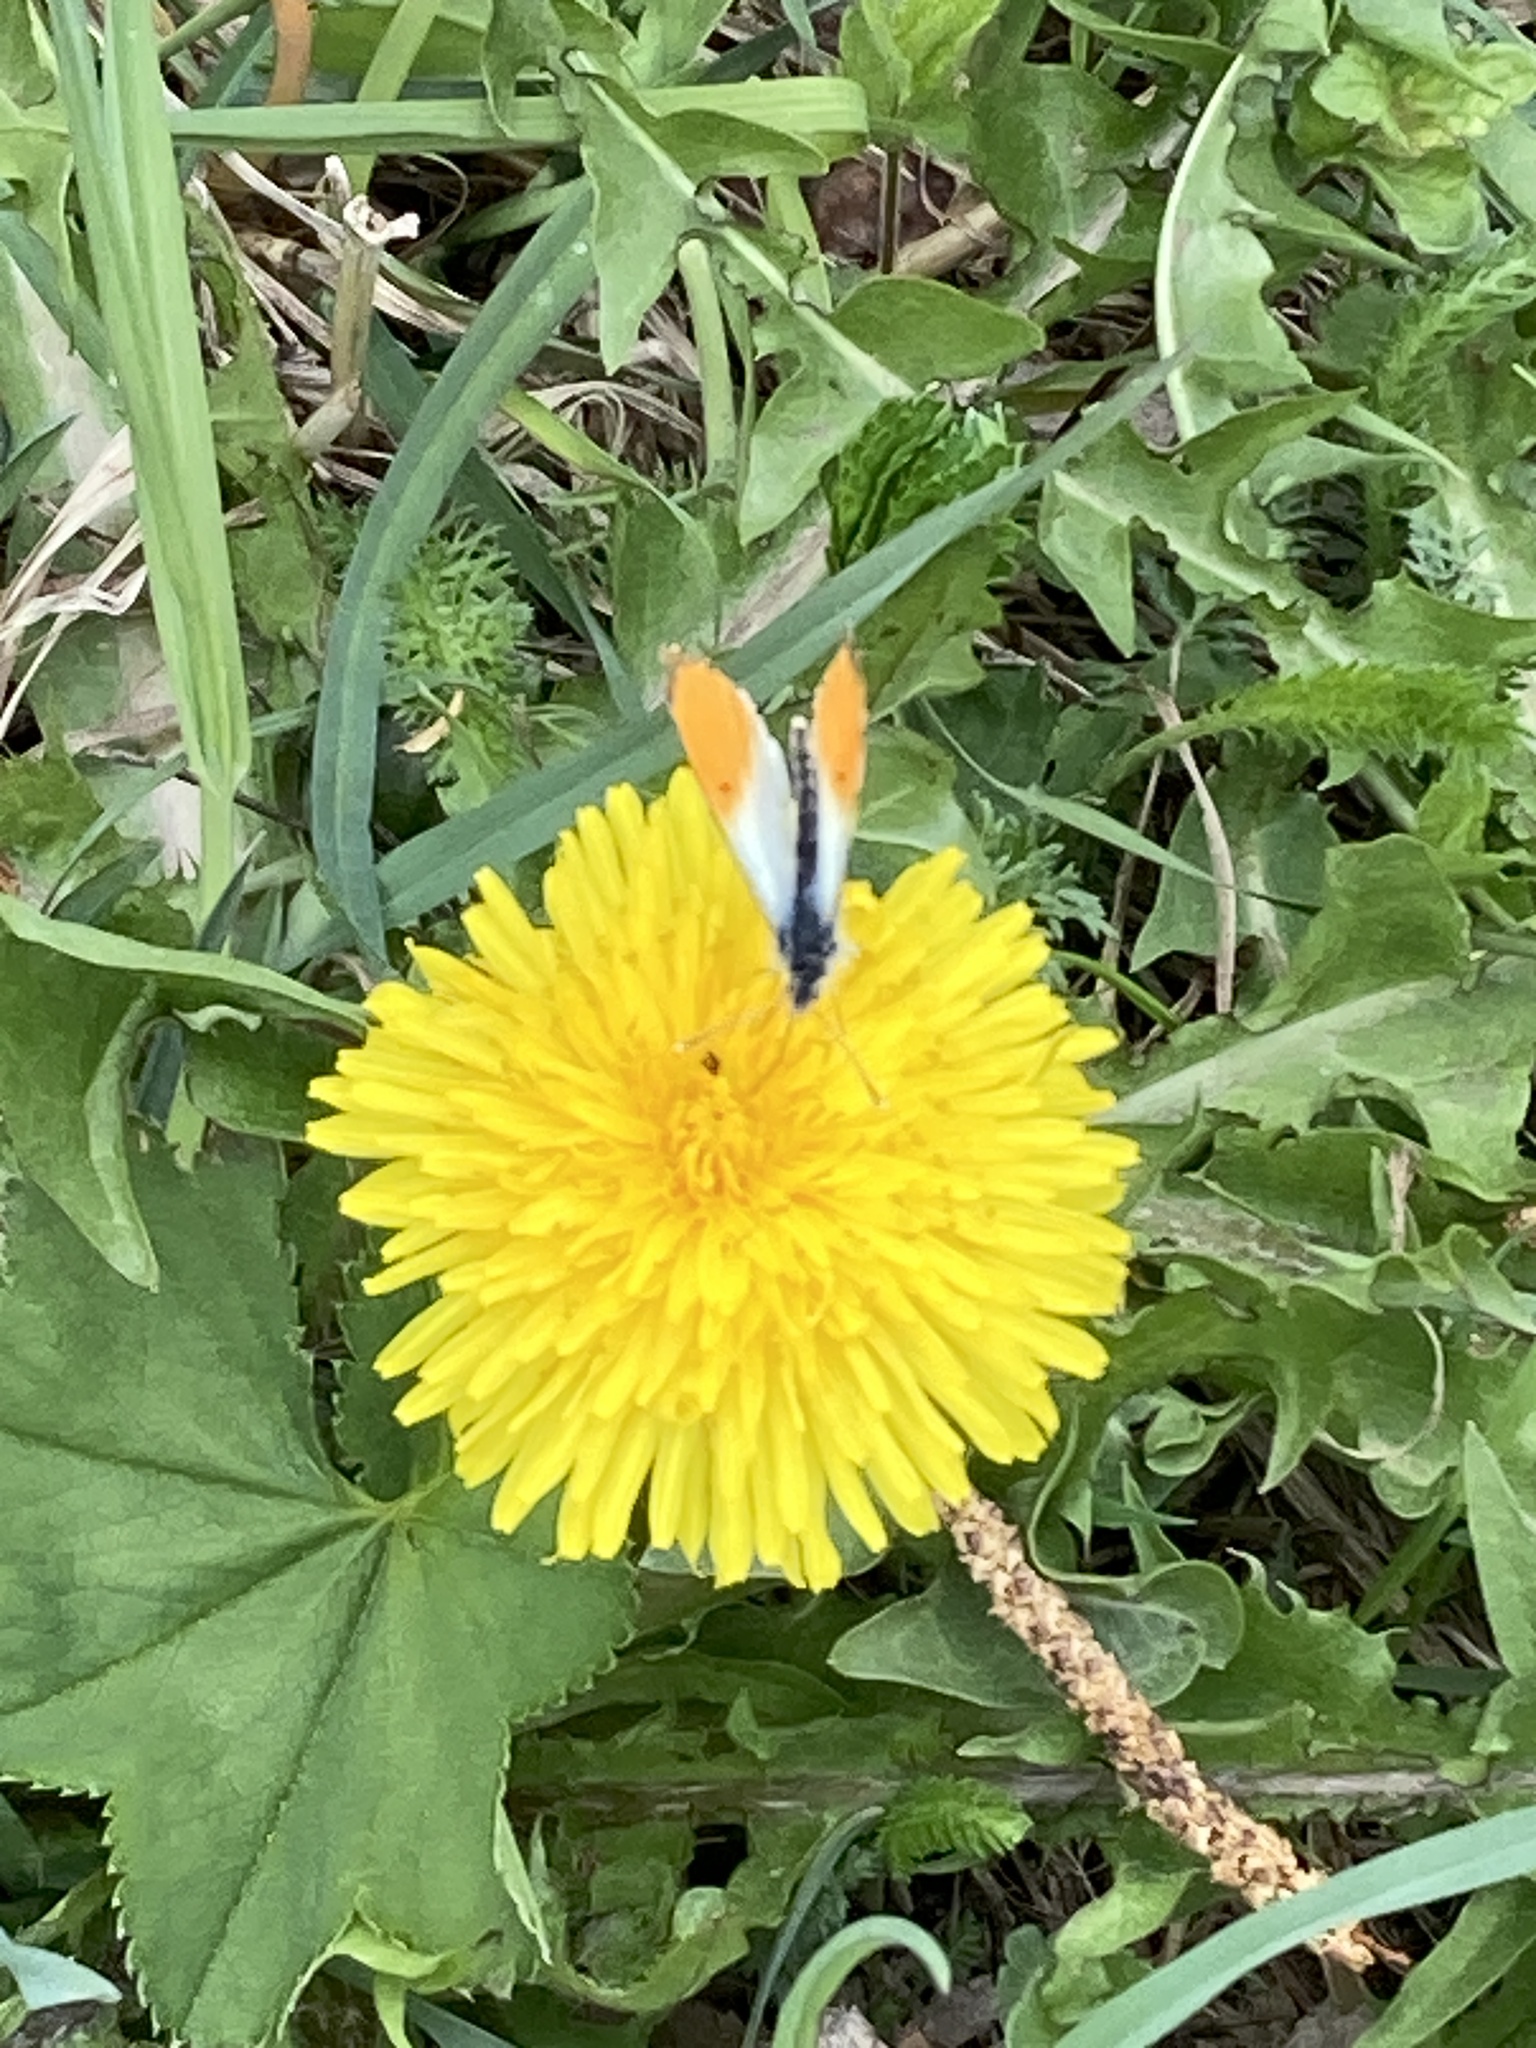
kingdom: Animalia
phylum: Arthropoda
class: Insecta
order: Lepidoptera
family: Pieridae
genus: Anthocharis
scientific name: Anthocharis cardamines
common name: Orange-tip
